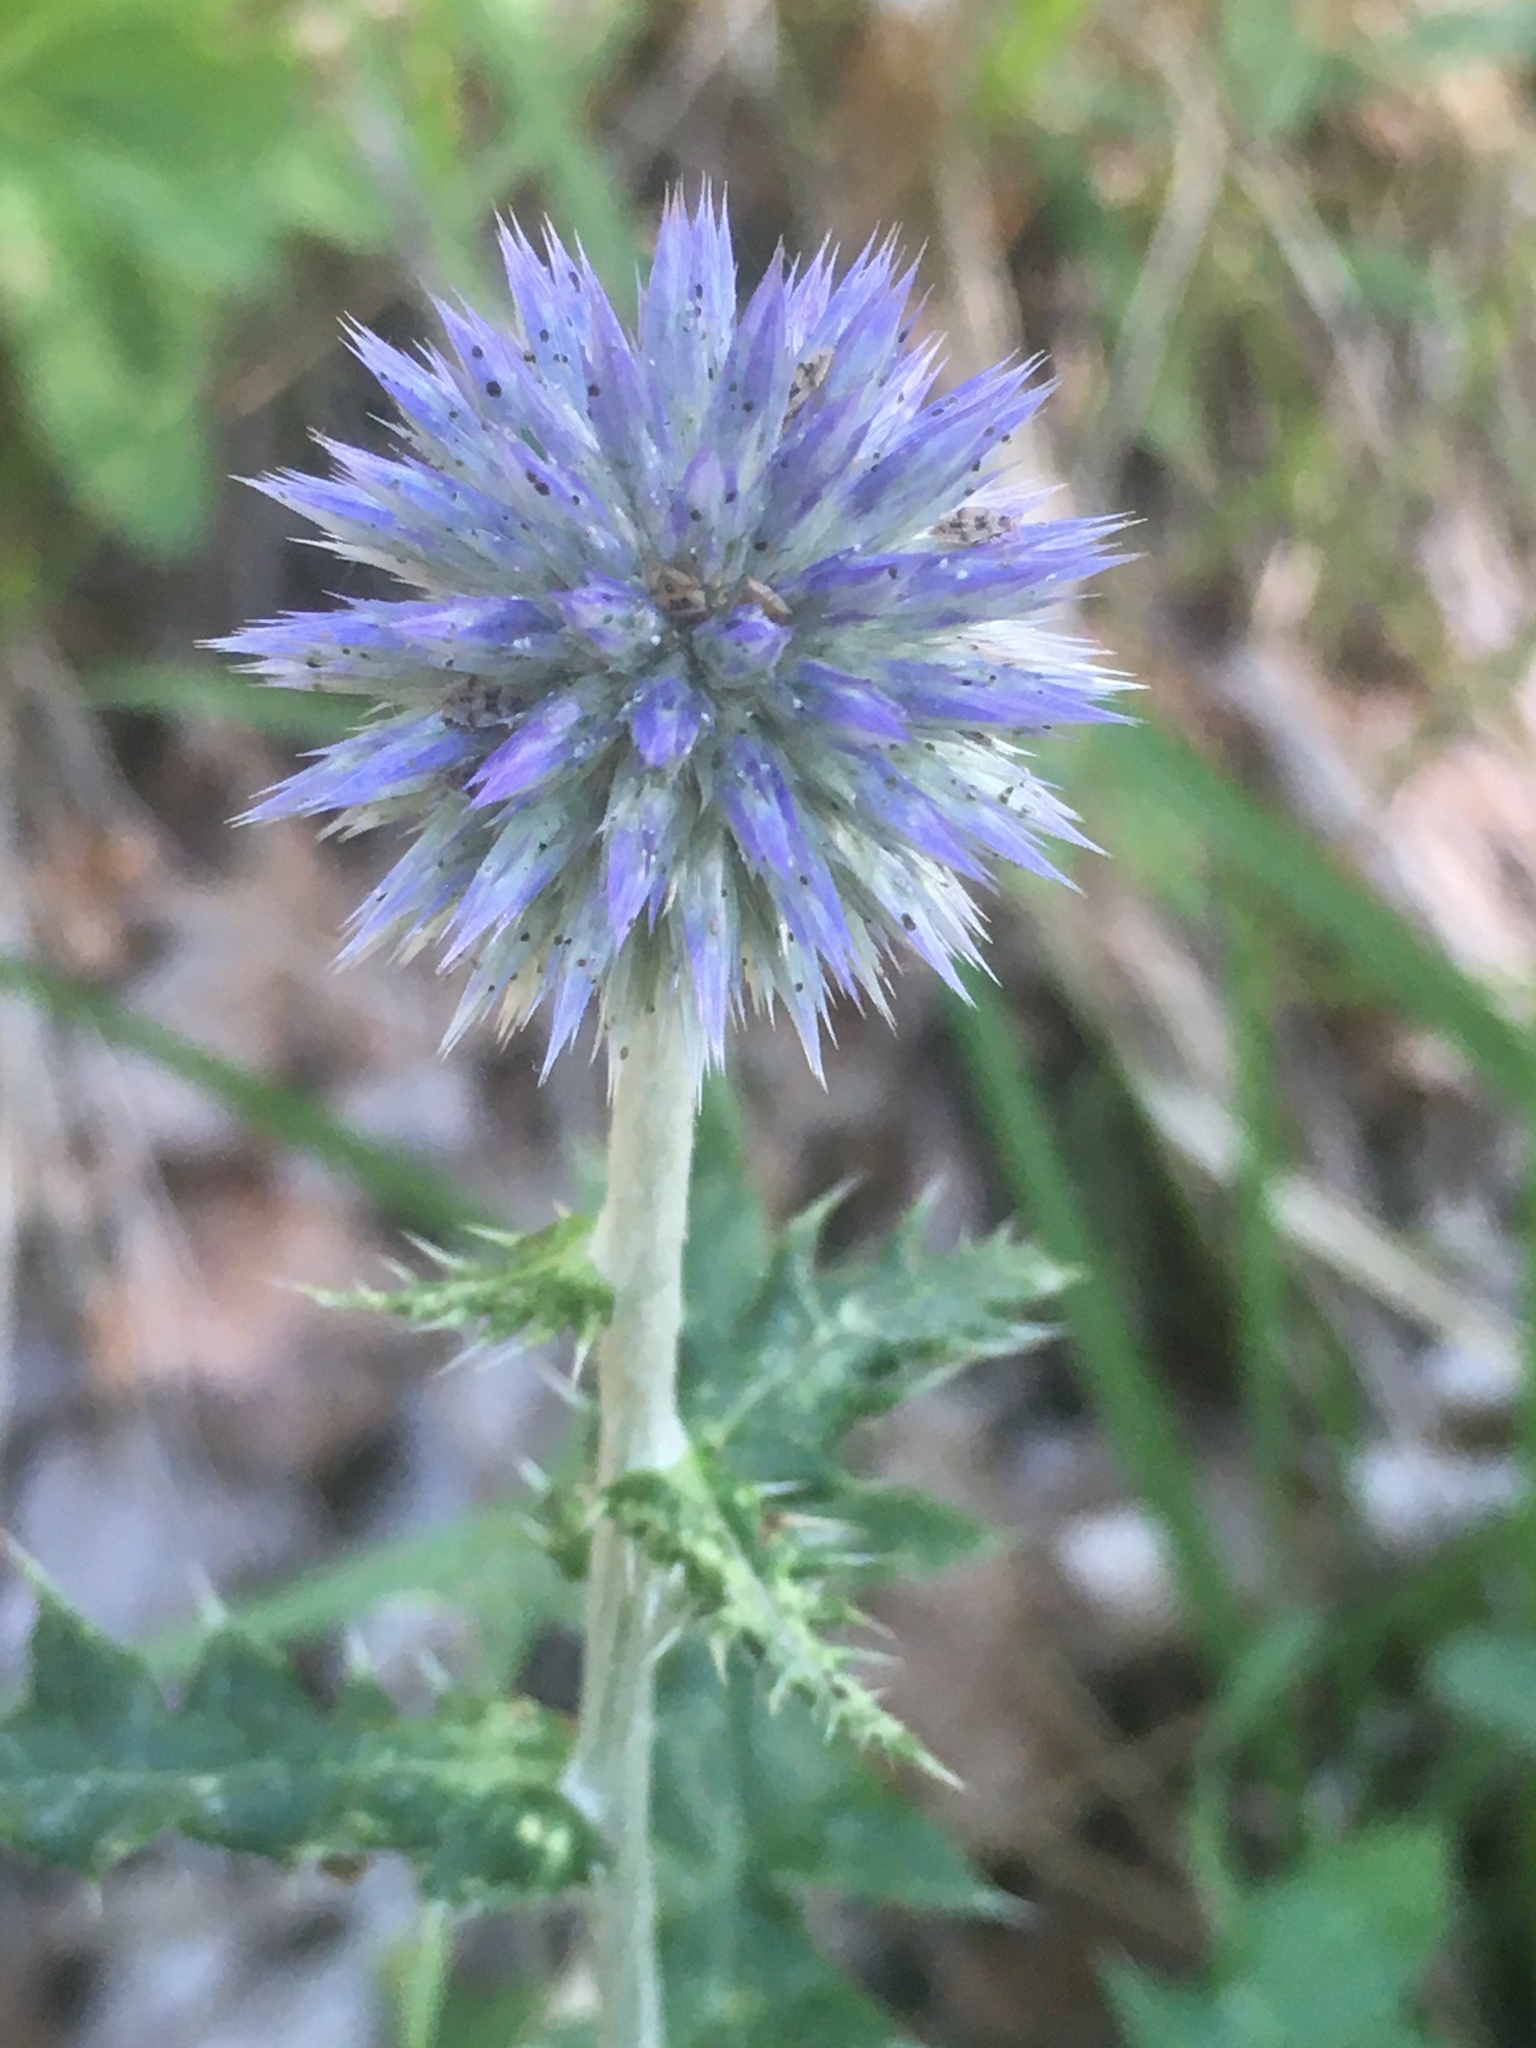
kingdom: Plantae
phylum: Tracheophyta
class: Magnoliopsida
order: Asterales
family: Asteraceae
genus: Echinops
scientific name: Echinops ritro
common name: Globe thistle
